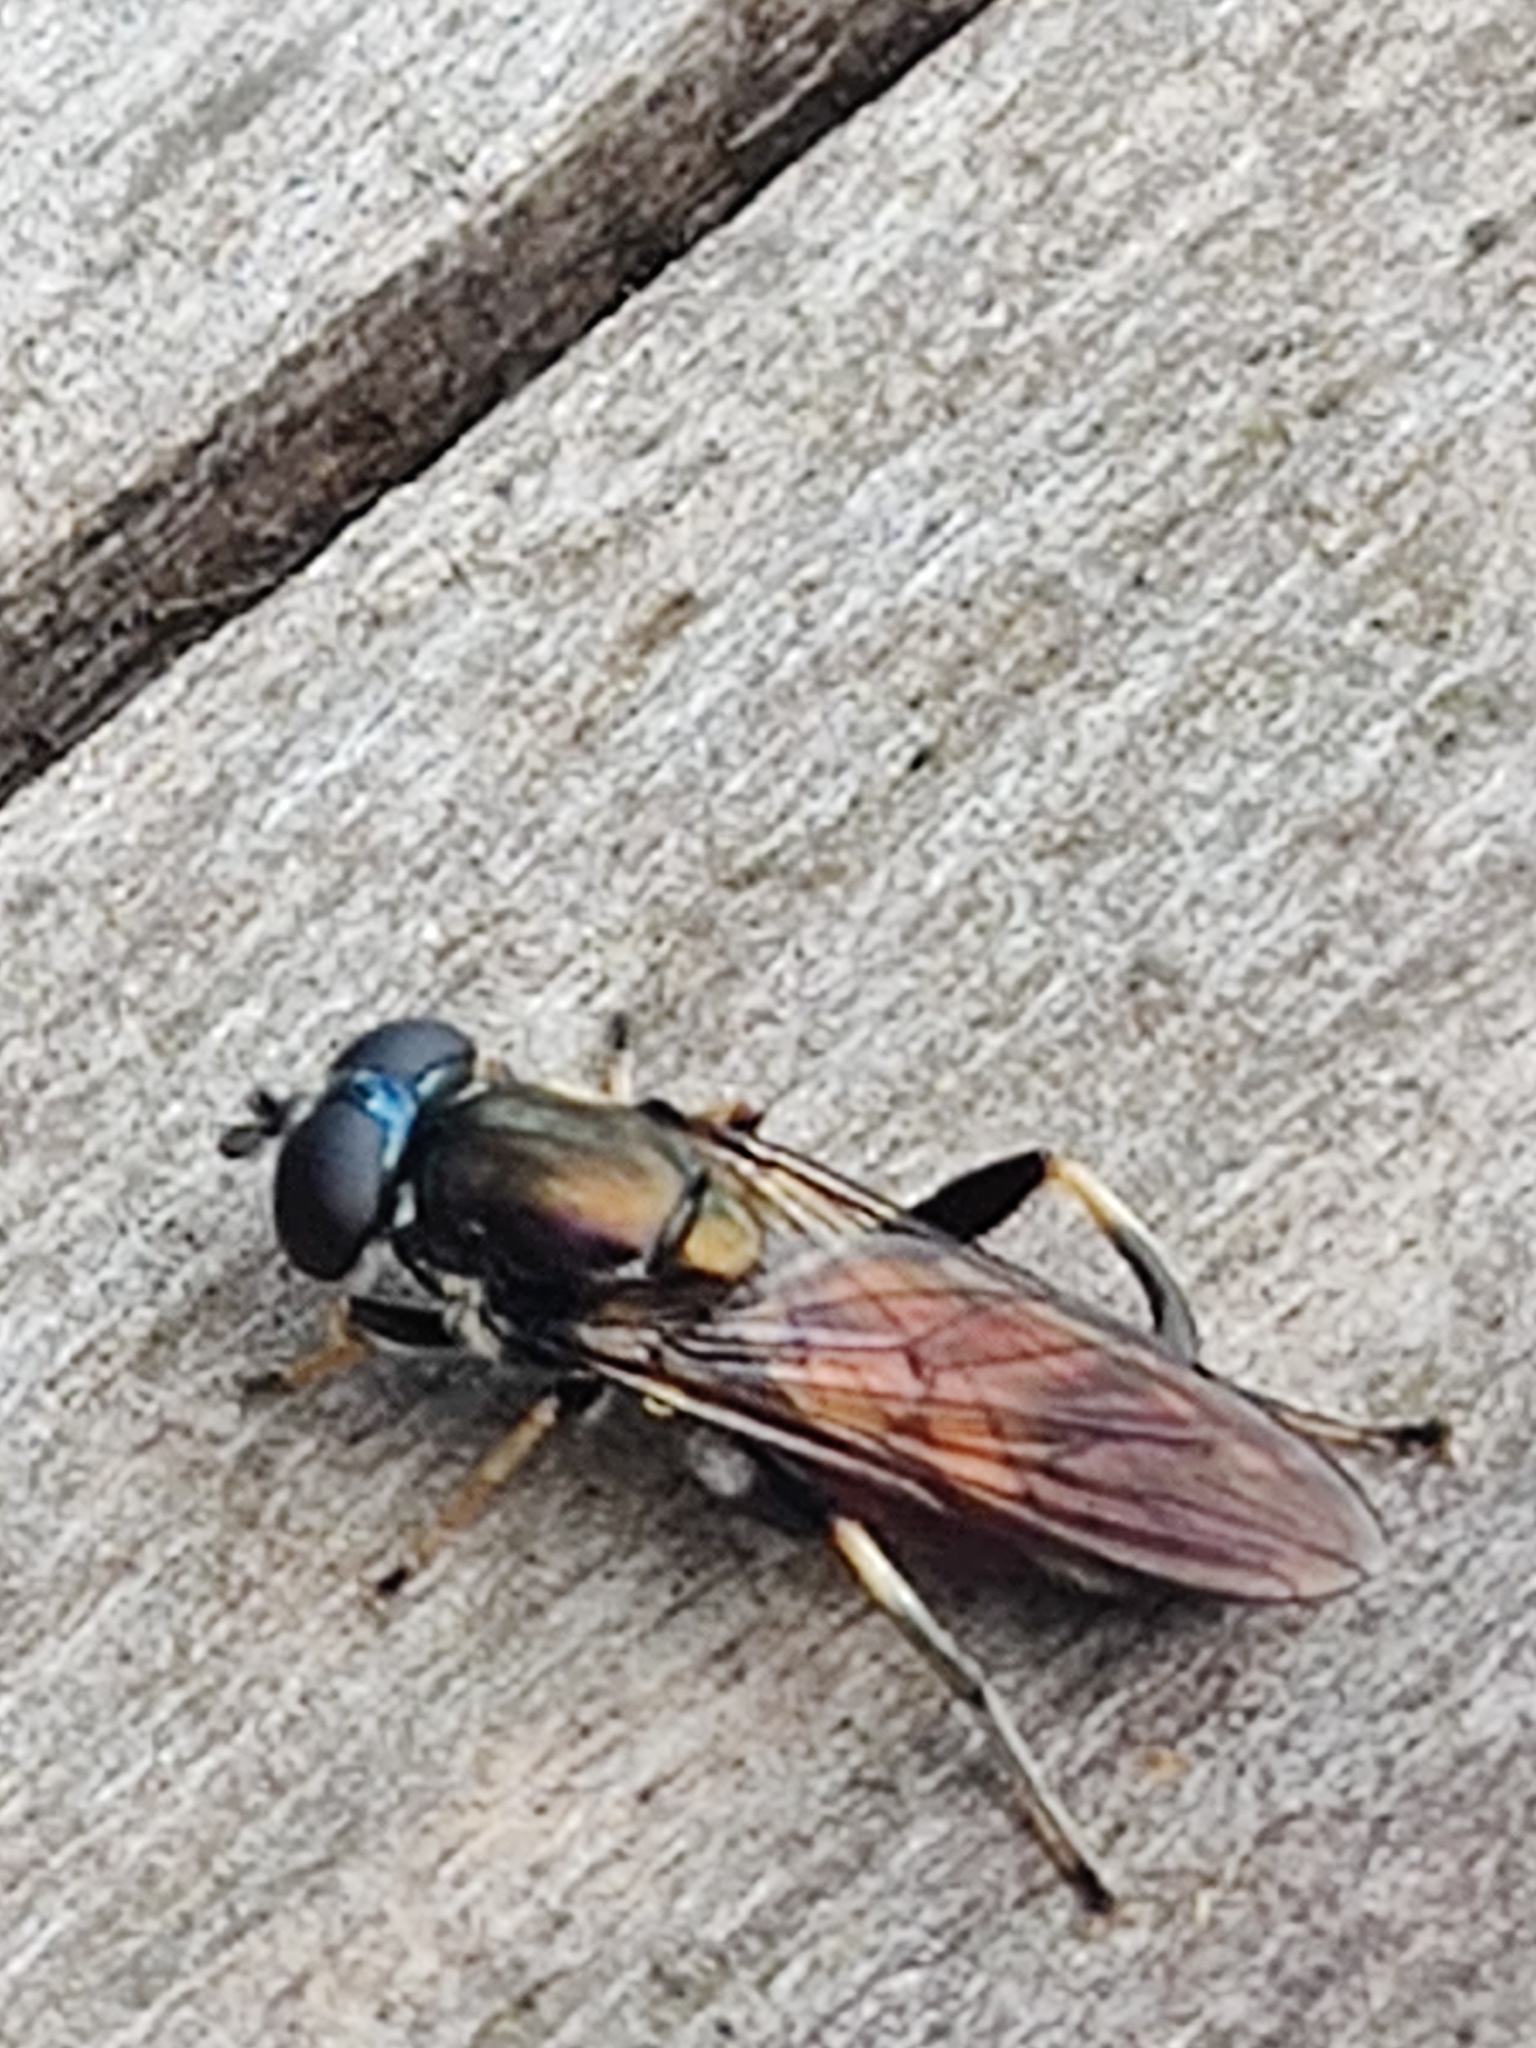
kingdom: Animalia
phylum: Arthropoda
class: Insecta
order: Diptera
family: Syrphidae
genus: Xylota
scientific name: Xylota segnis
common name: Brown-toed forest fly
